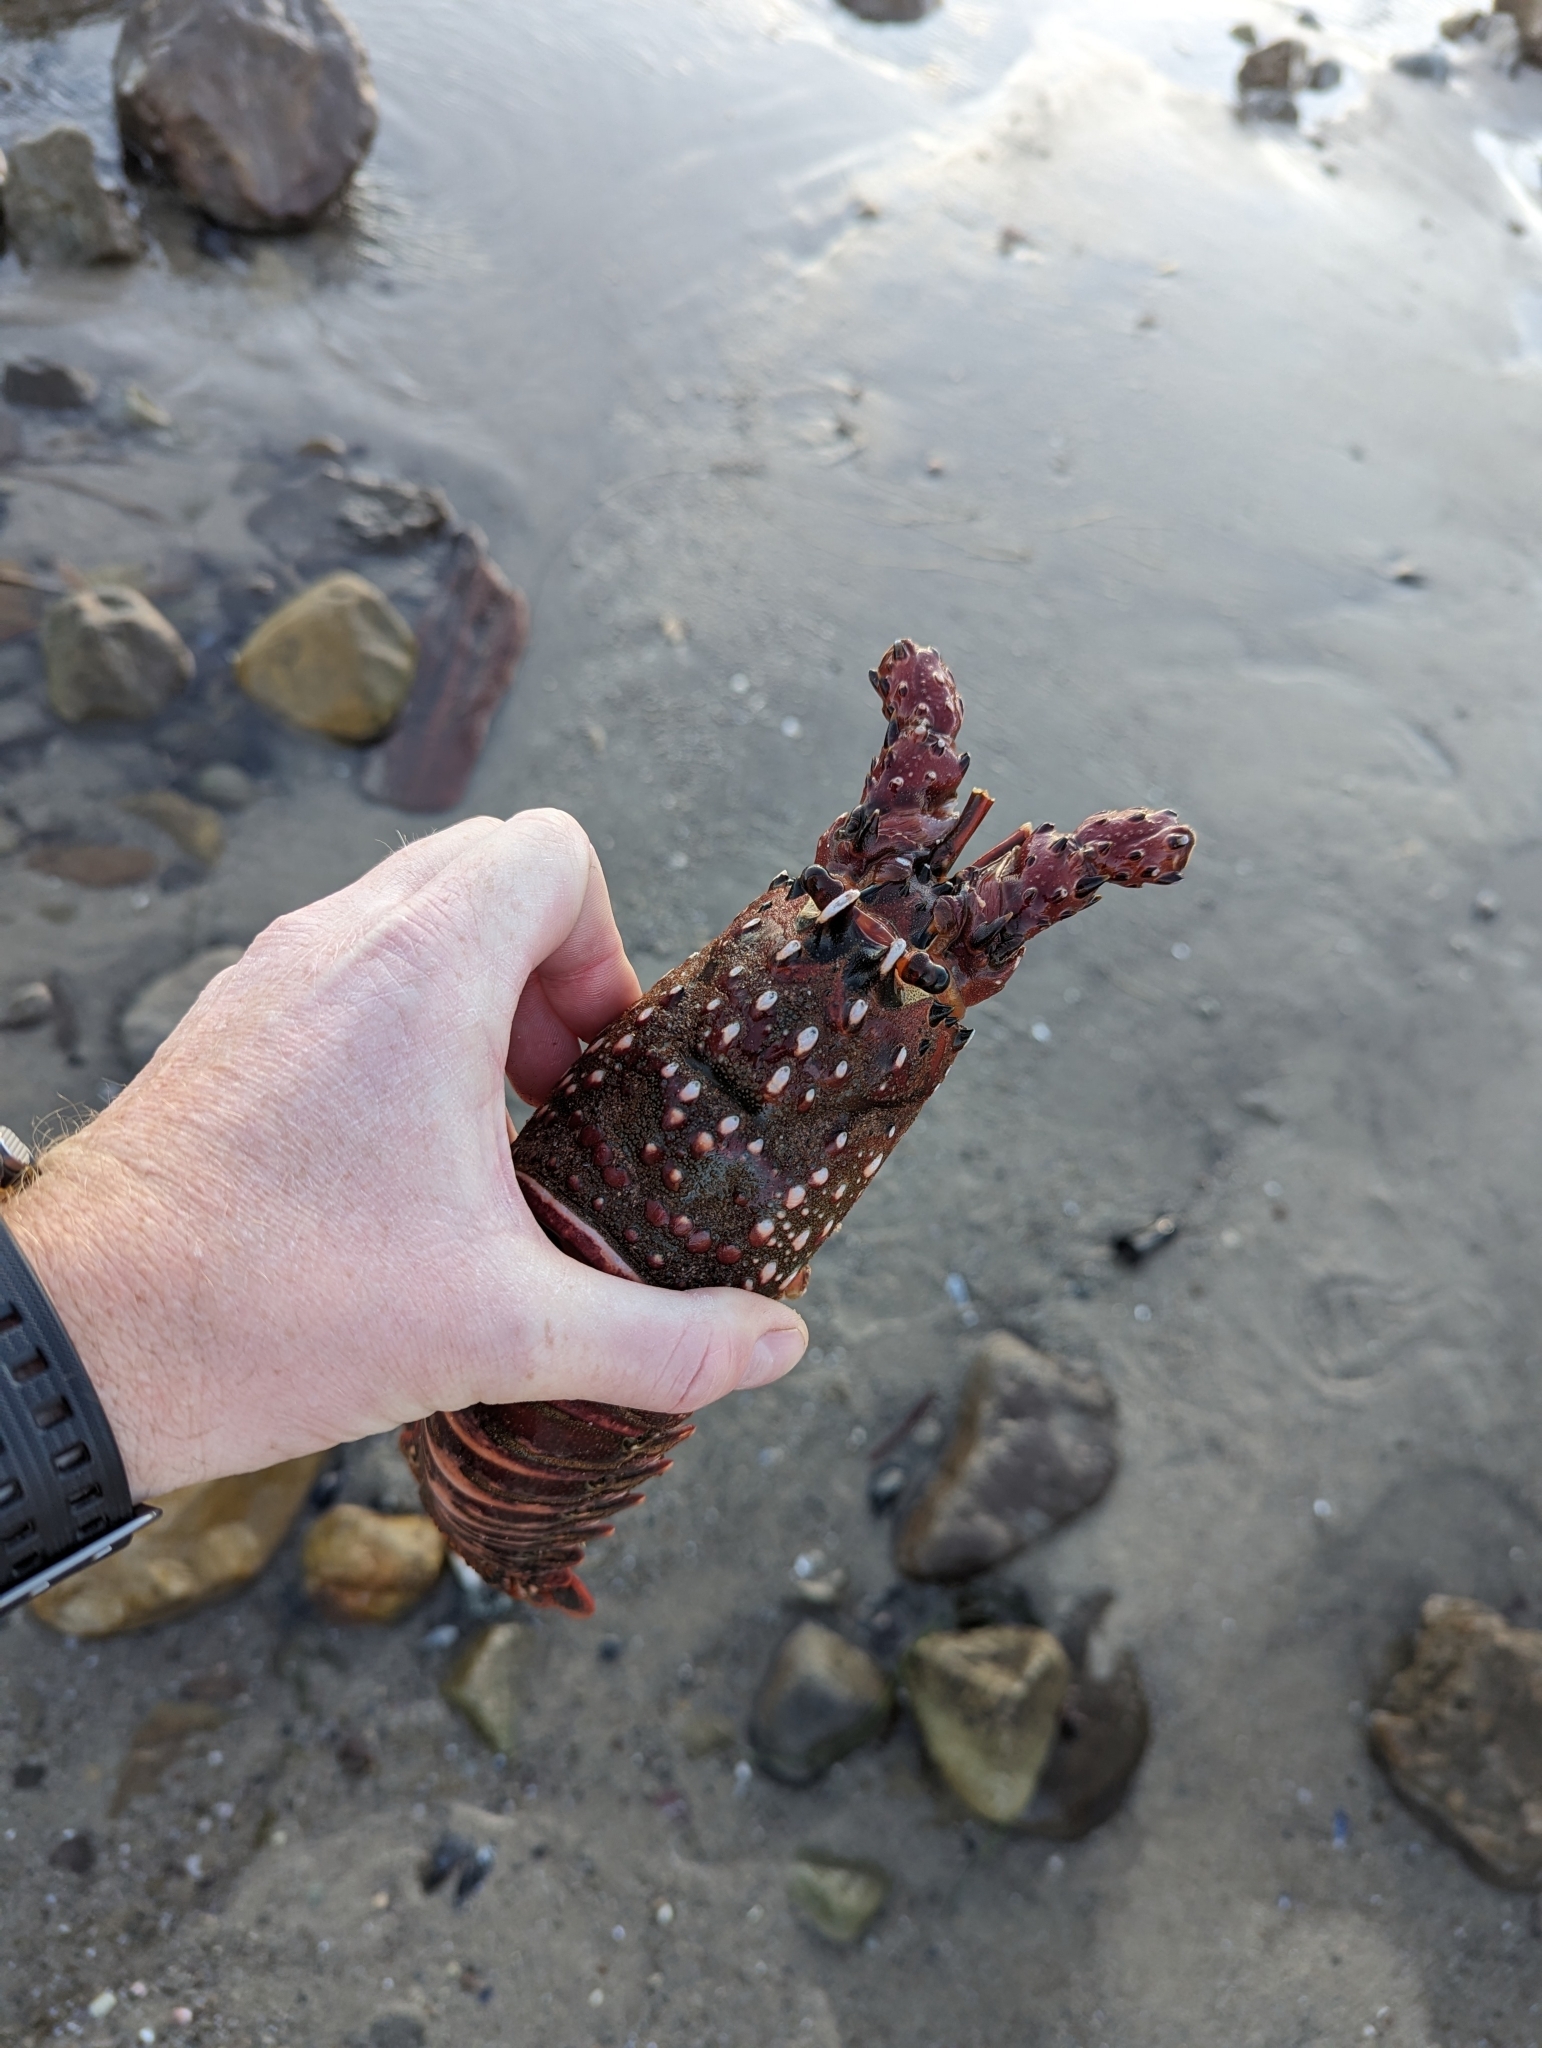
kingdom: Animalia
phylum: Arthropoda
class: Malacostraca
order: Decapoda
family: Palinuridae
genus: Panulirus
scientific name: Panulirus interruptus
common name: California spiny lobster
